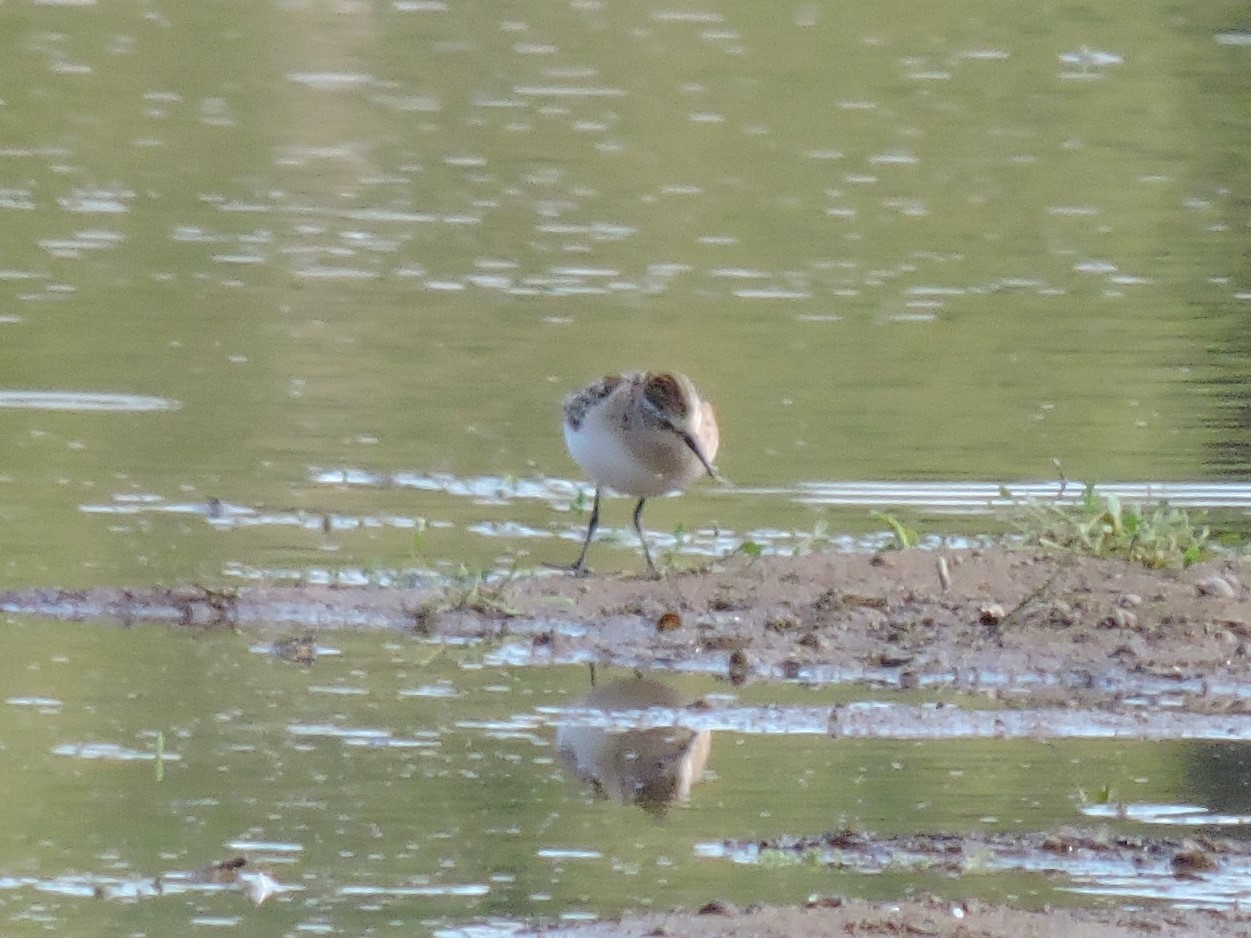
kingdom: Animalia
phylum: Chordata
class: Aves
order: Charadriiformes
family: Scolopacidae
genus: Calidris
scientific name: Calidris minuta
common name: Little stint
